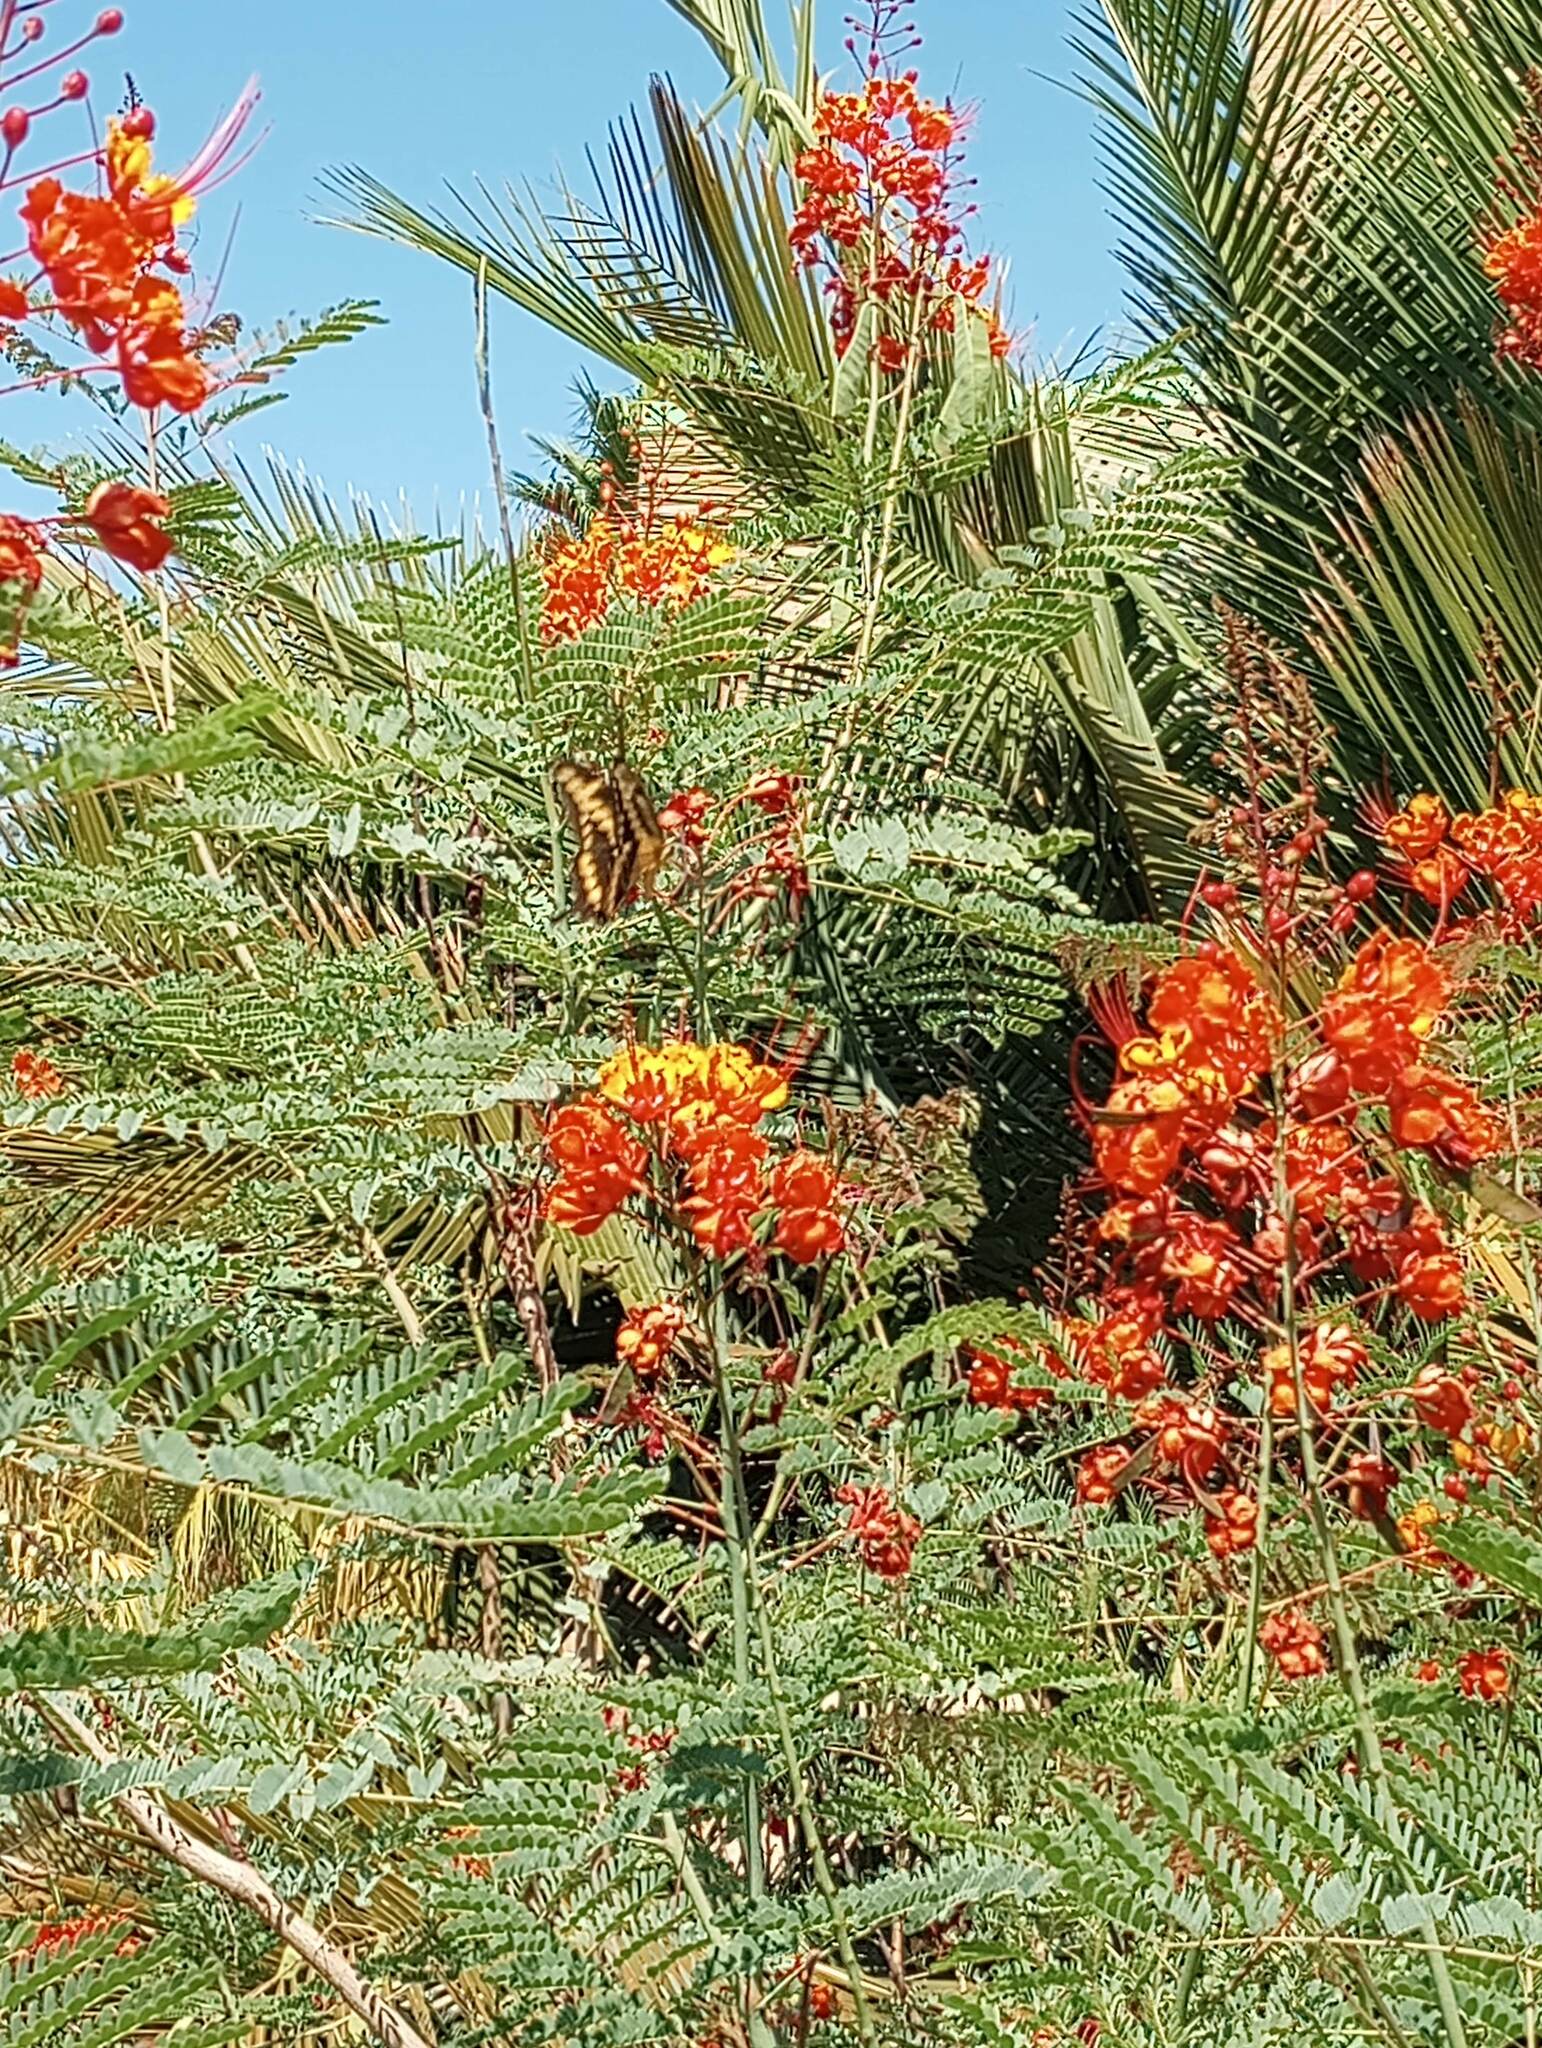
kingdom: Animalia
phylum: Arthropoda
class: Insecta
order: Lepidoptera
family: Papilionidae
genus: Papilio
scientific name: Papilio rumiko
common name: Western giant swallowtail
